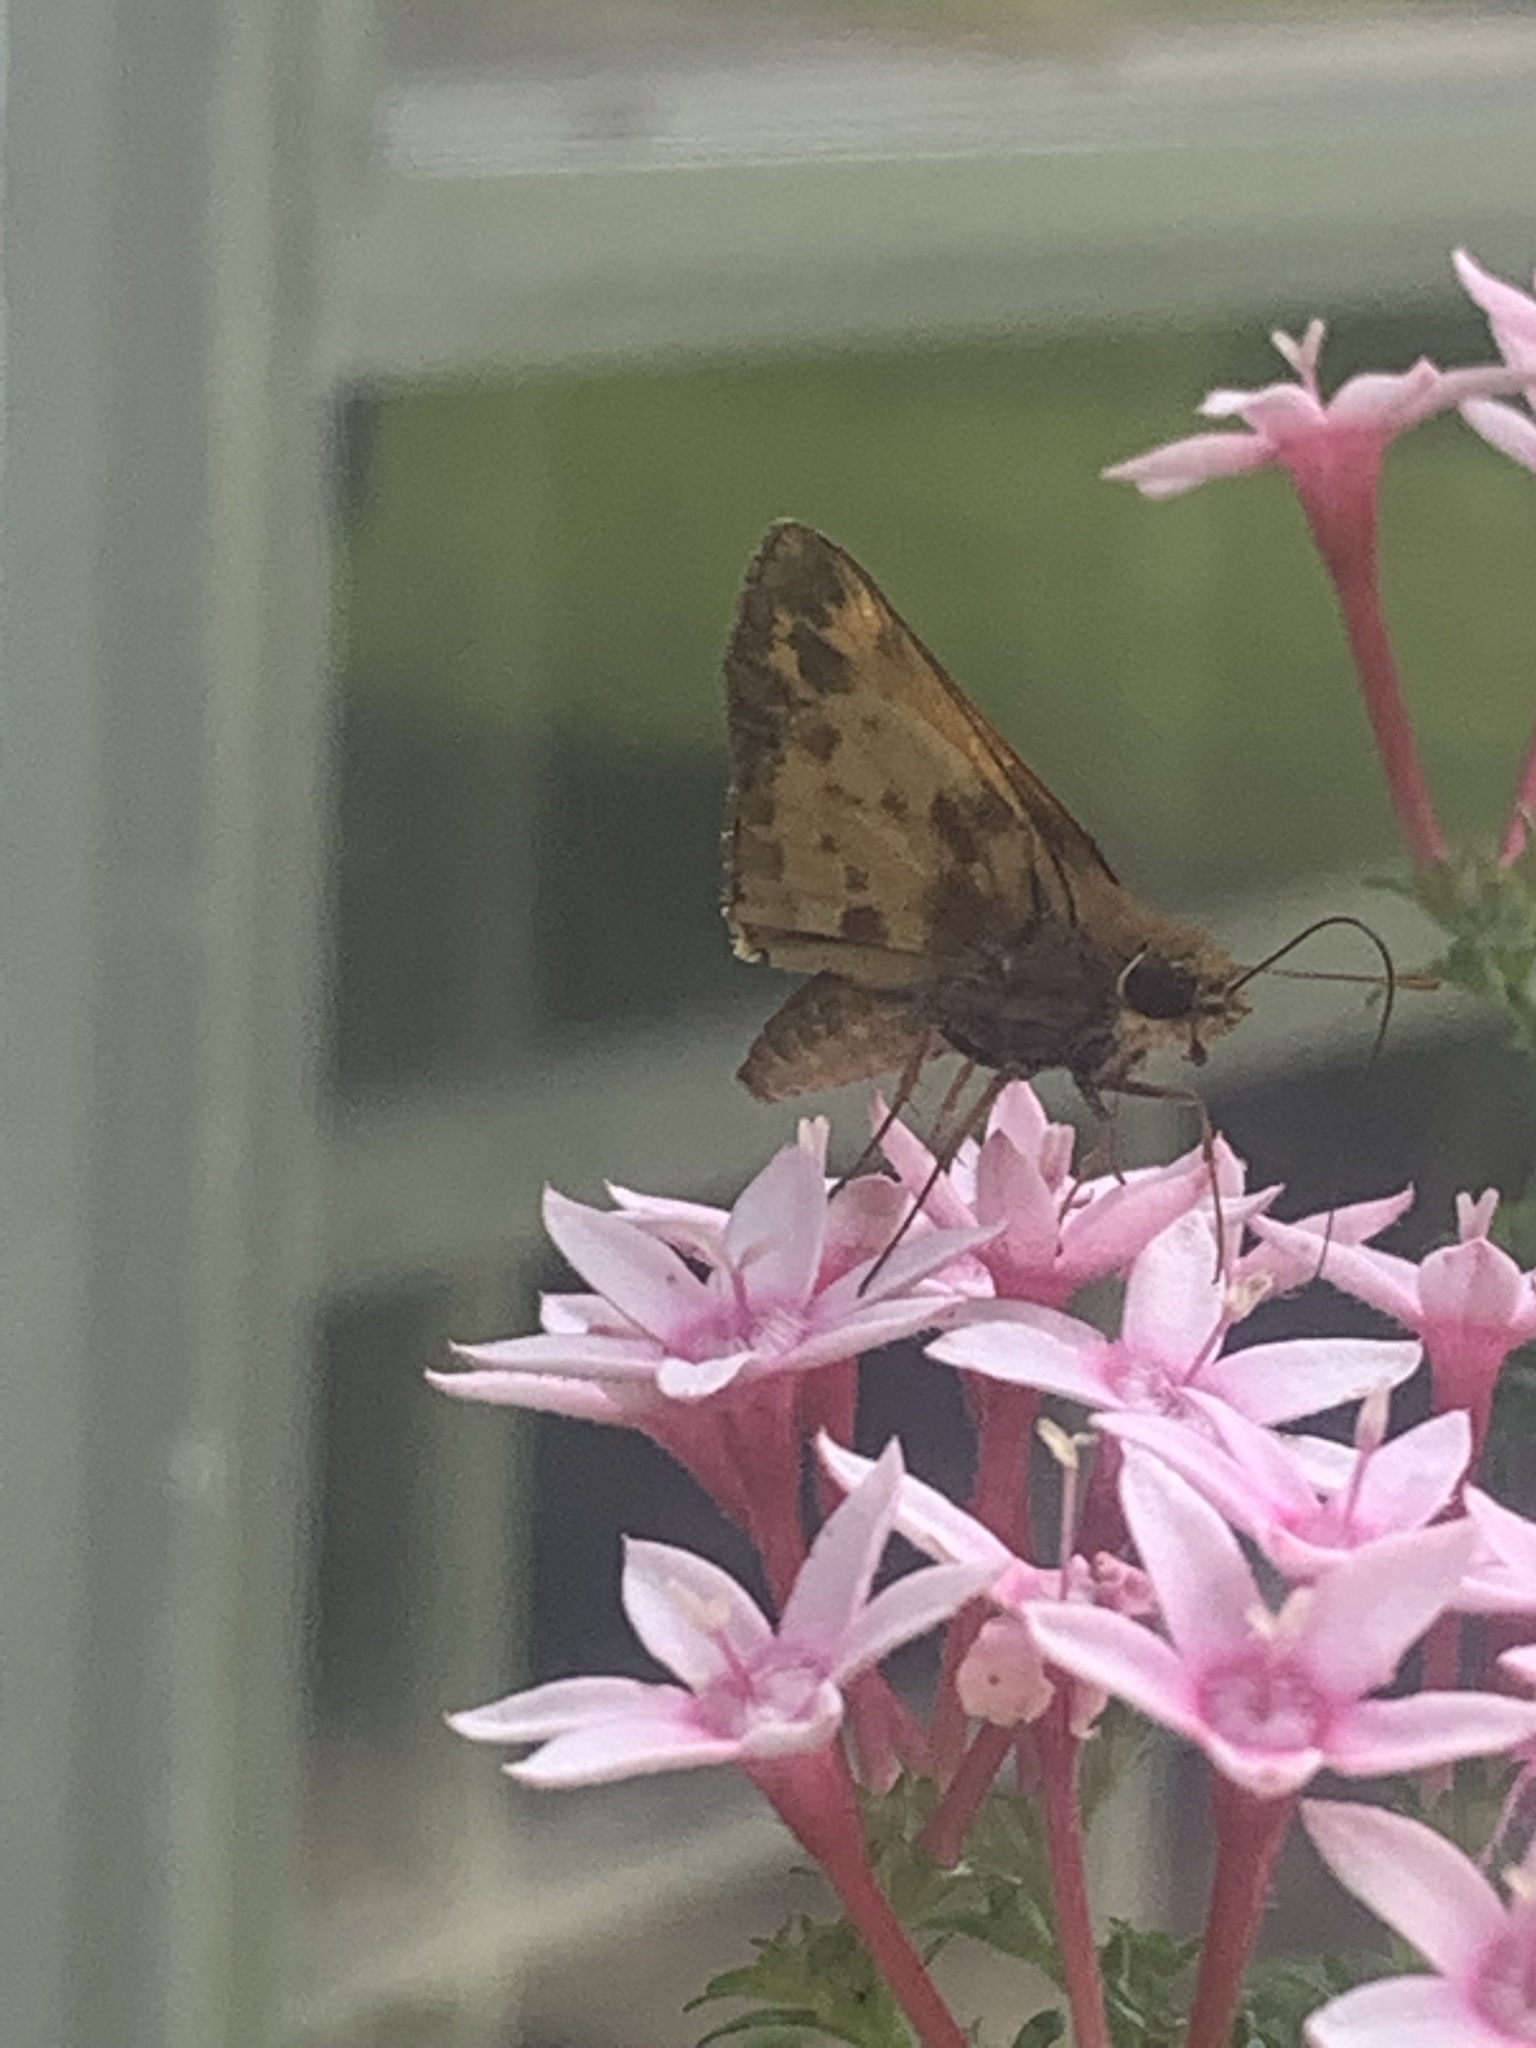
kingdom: Animalia
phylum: Arthropoda
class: Insecta
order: Lepidoptera
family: Hesperiidae
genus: Lon
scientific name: Lon zabulon
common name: Zabulon skipper
